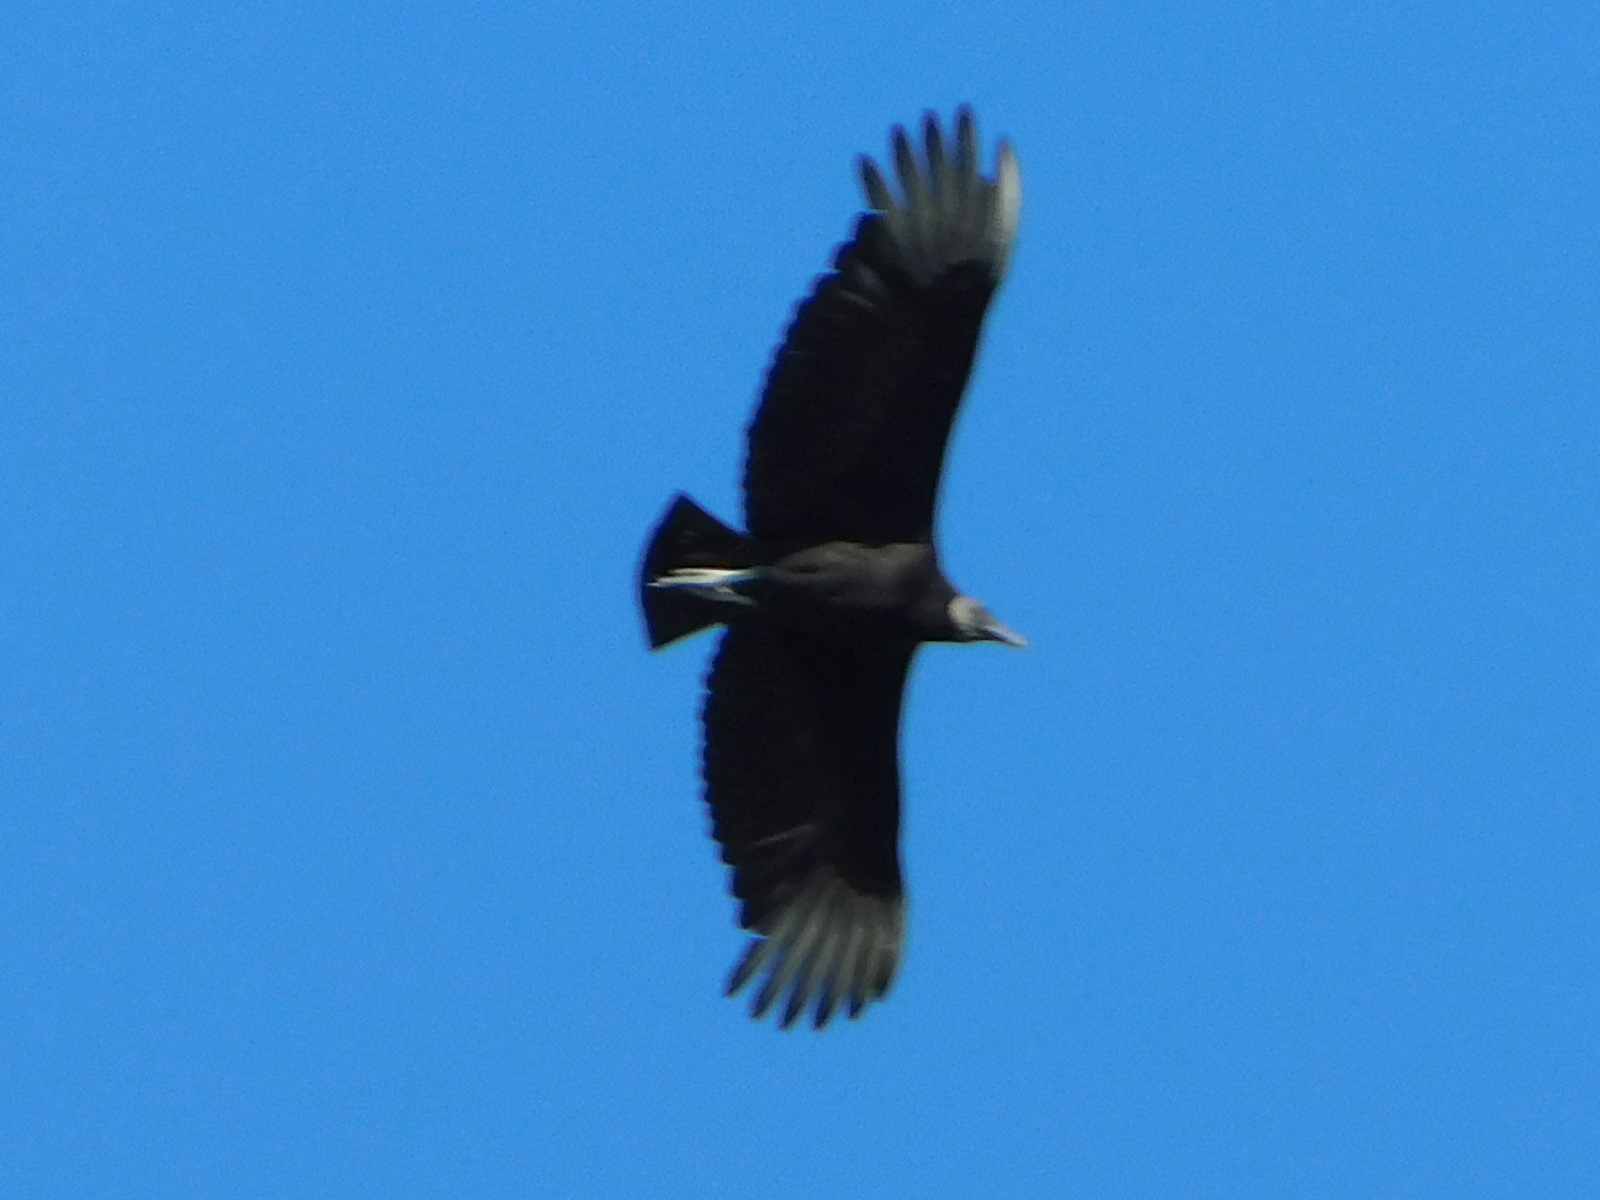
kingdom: Animalia
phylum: Chordata
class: Aves
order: Accipitriformes
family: Cathartidae
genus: Coragyps
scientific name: Coragyps atratus
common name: Black vulture
